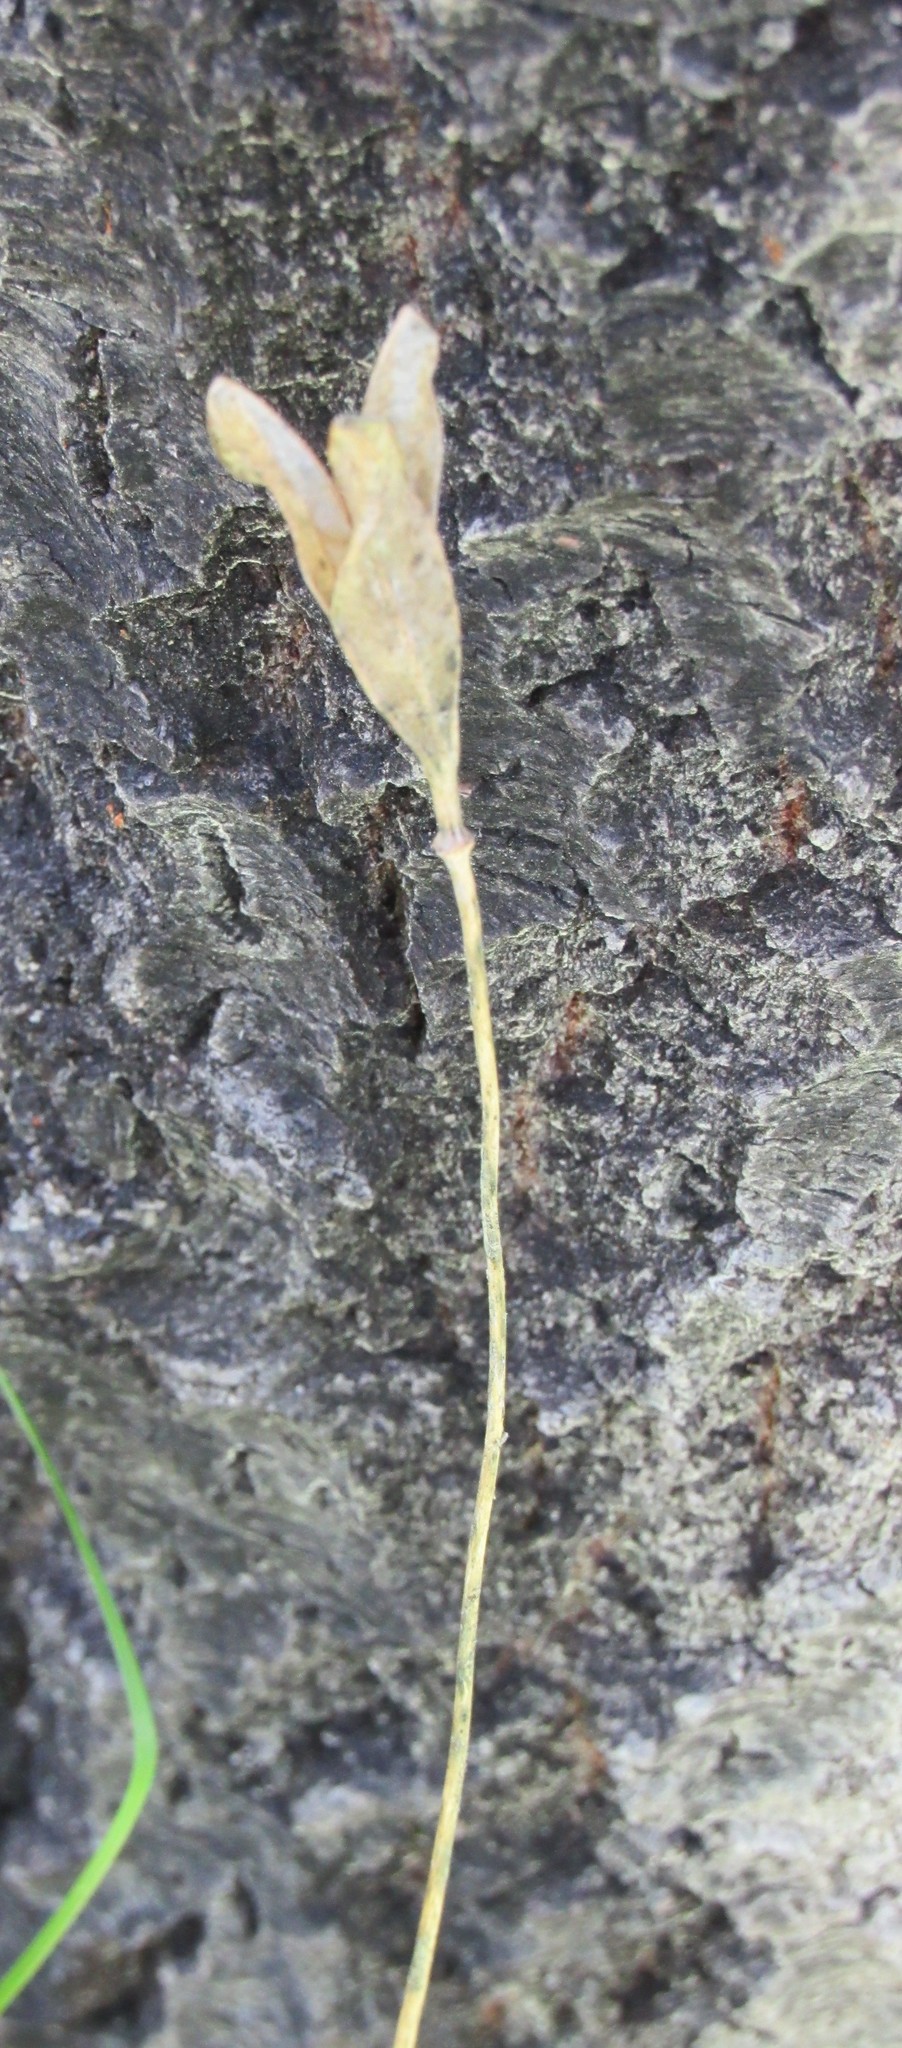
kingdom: Plantae
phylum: Tracheophyta
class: Liliopsida
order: Liliales
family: Liliaceae
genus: Erythronium
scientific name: Erythronium grandiflorum
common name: Avalanche-lily
